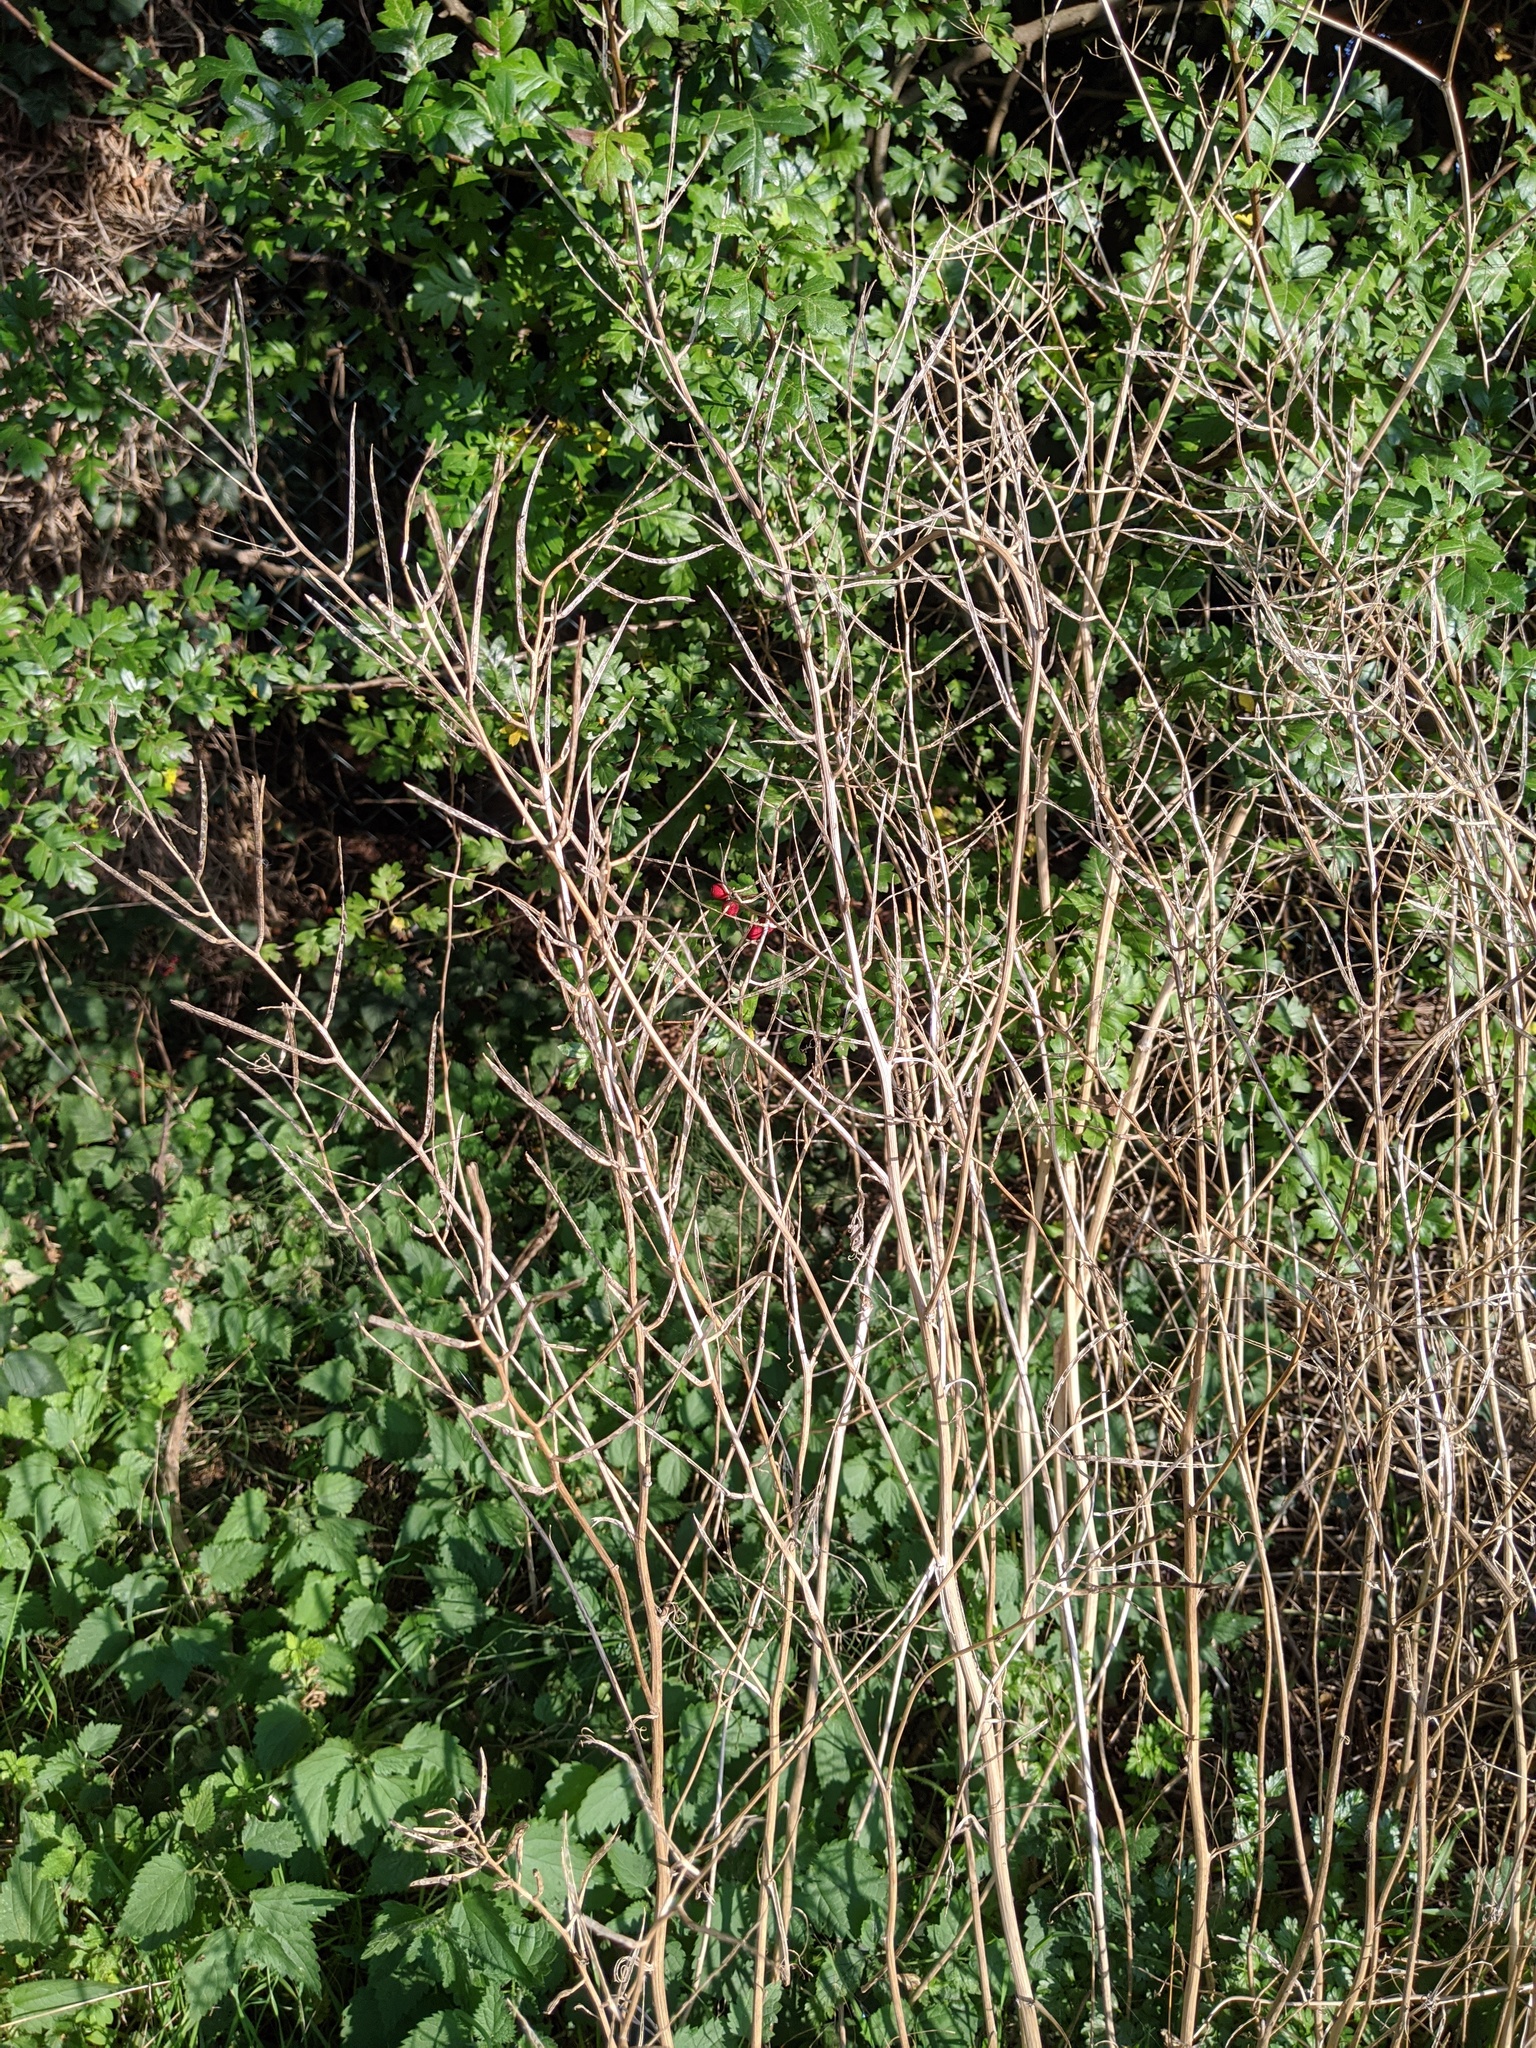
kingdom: Plantae
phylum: Tracheophyta
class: Magnoliopsida
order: Brassicales
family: Brassicaceae
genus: Alliaria
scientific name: Alliaria petiolata
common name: Garlic mustard
